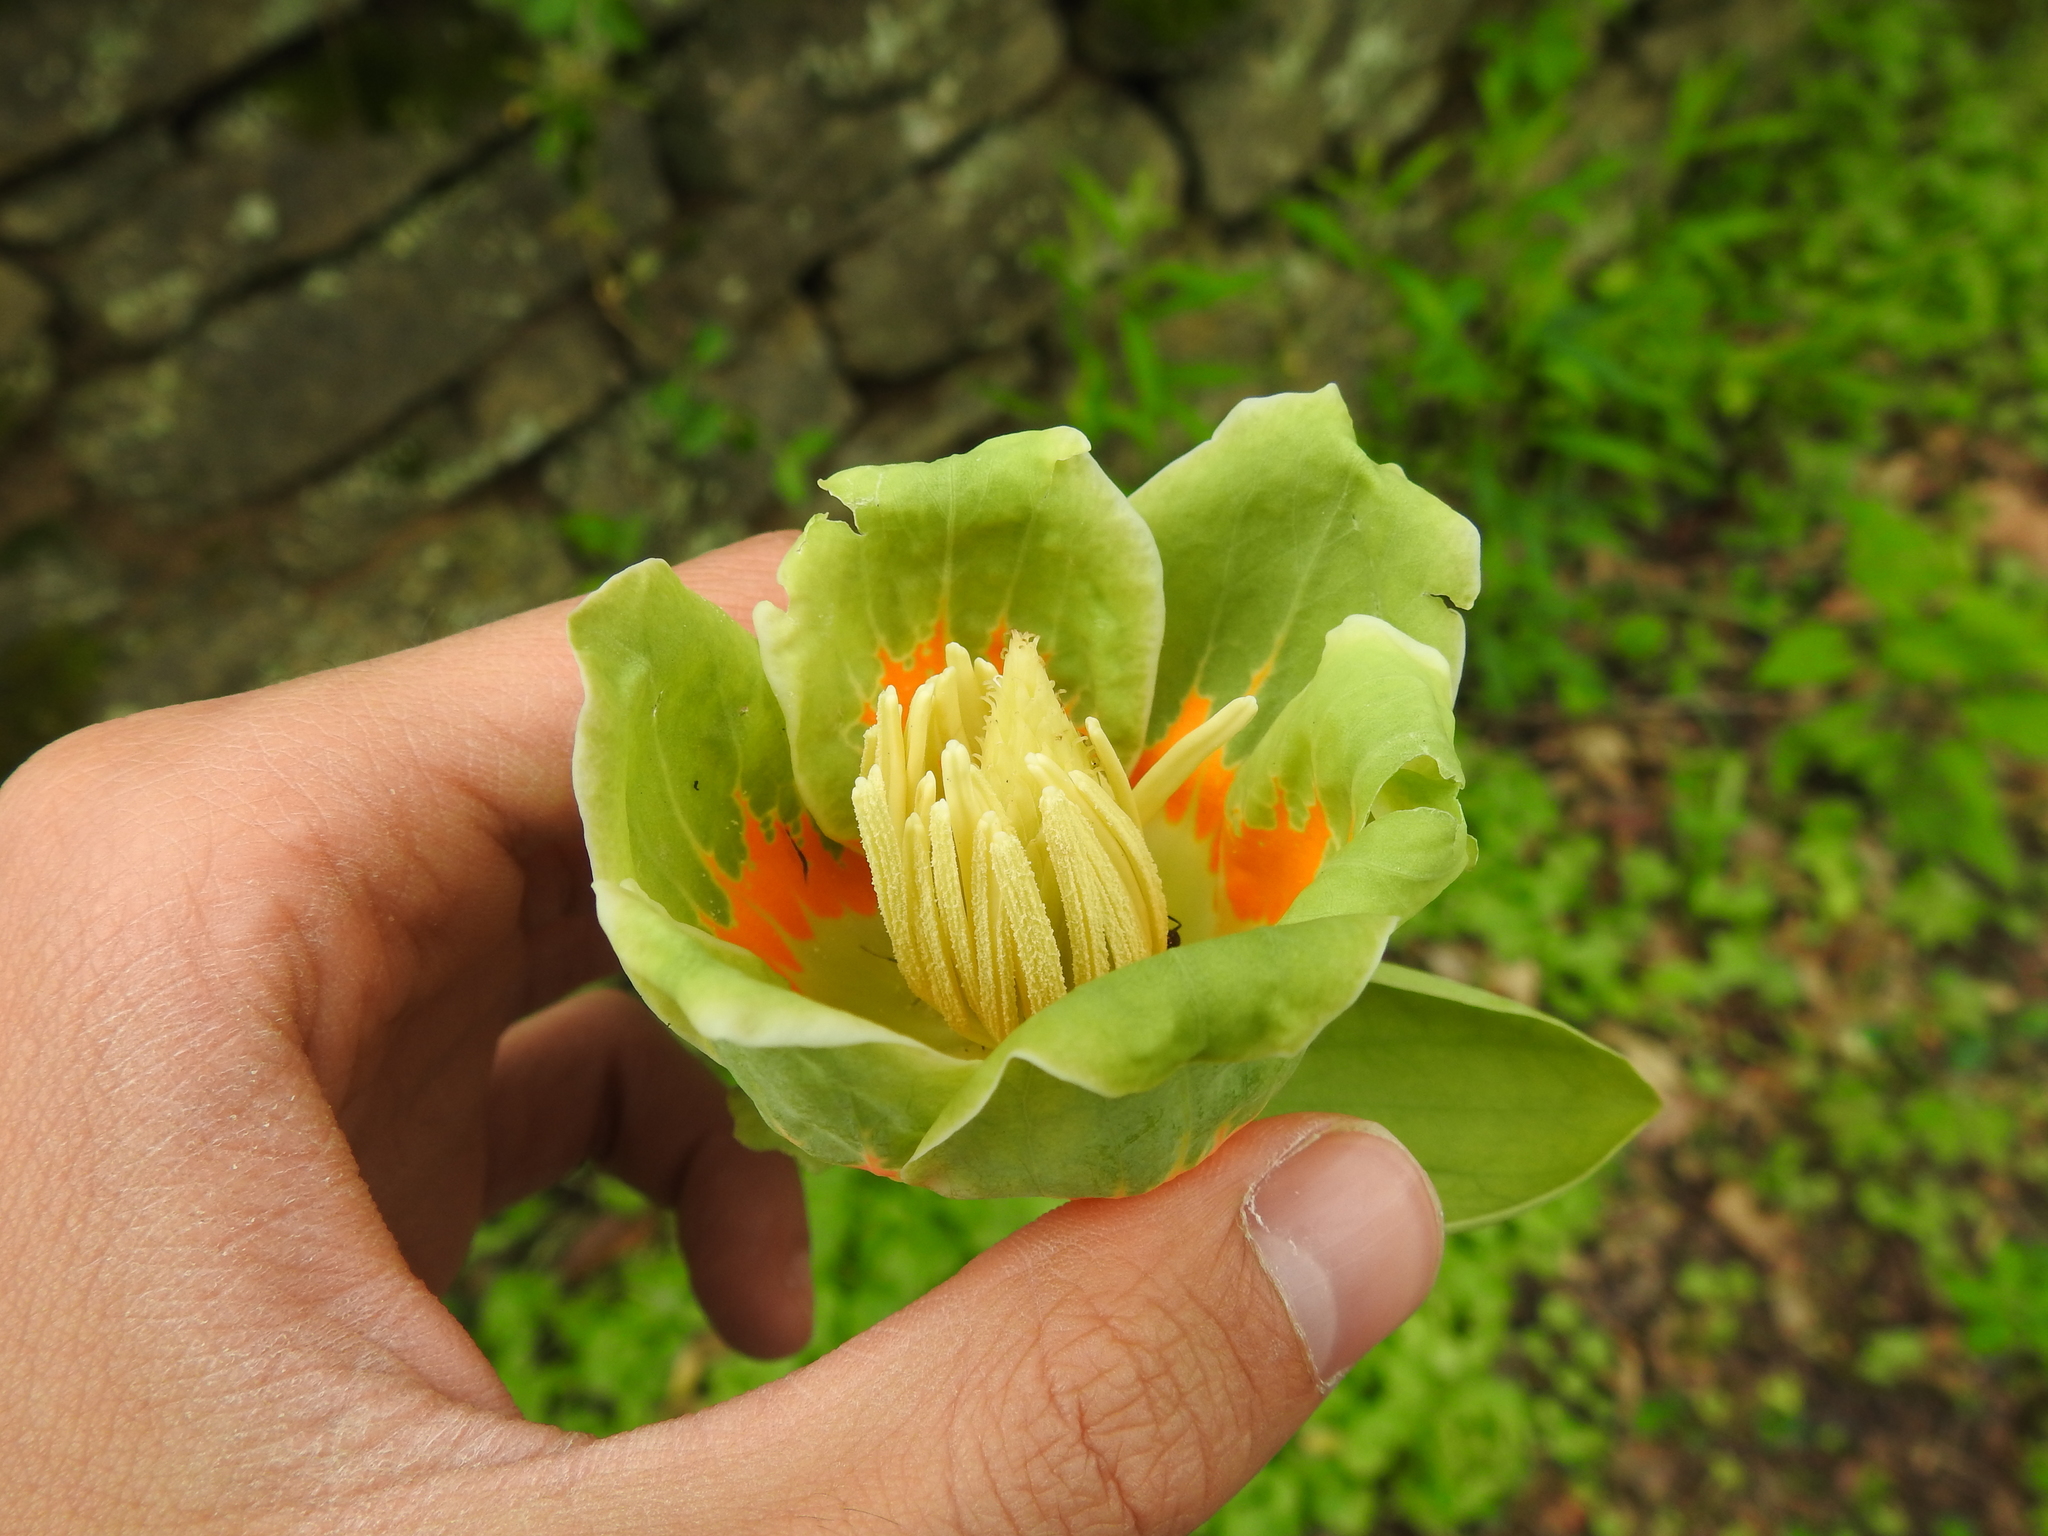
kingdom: Plantae
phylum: Tracheophyta
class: Magnoliopsida
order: Magnoliales
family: Magnoliaceae
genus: Liriodendron
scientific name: Liriodendron tulipifera
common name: Tulip tree
